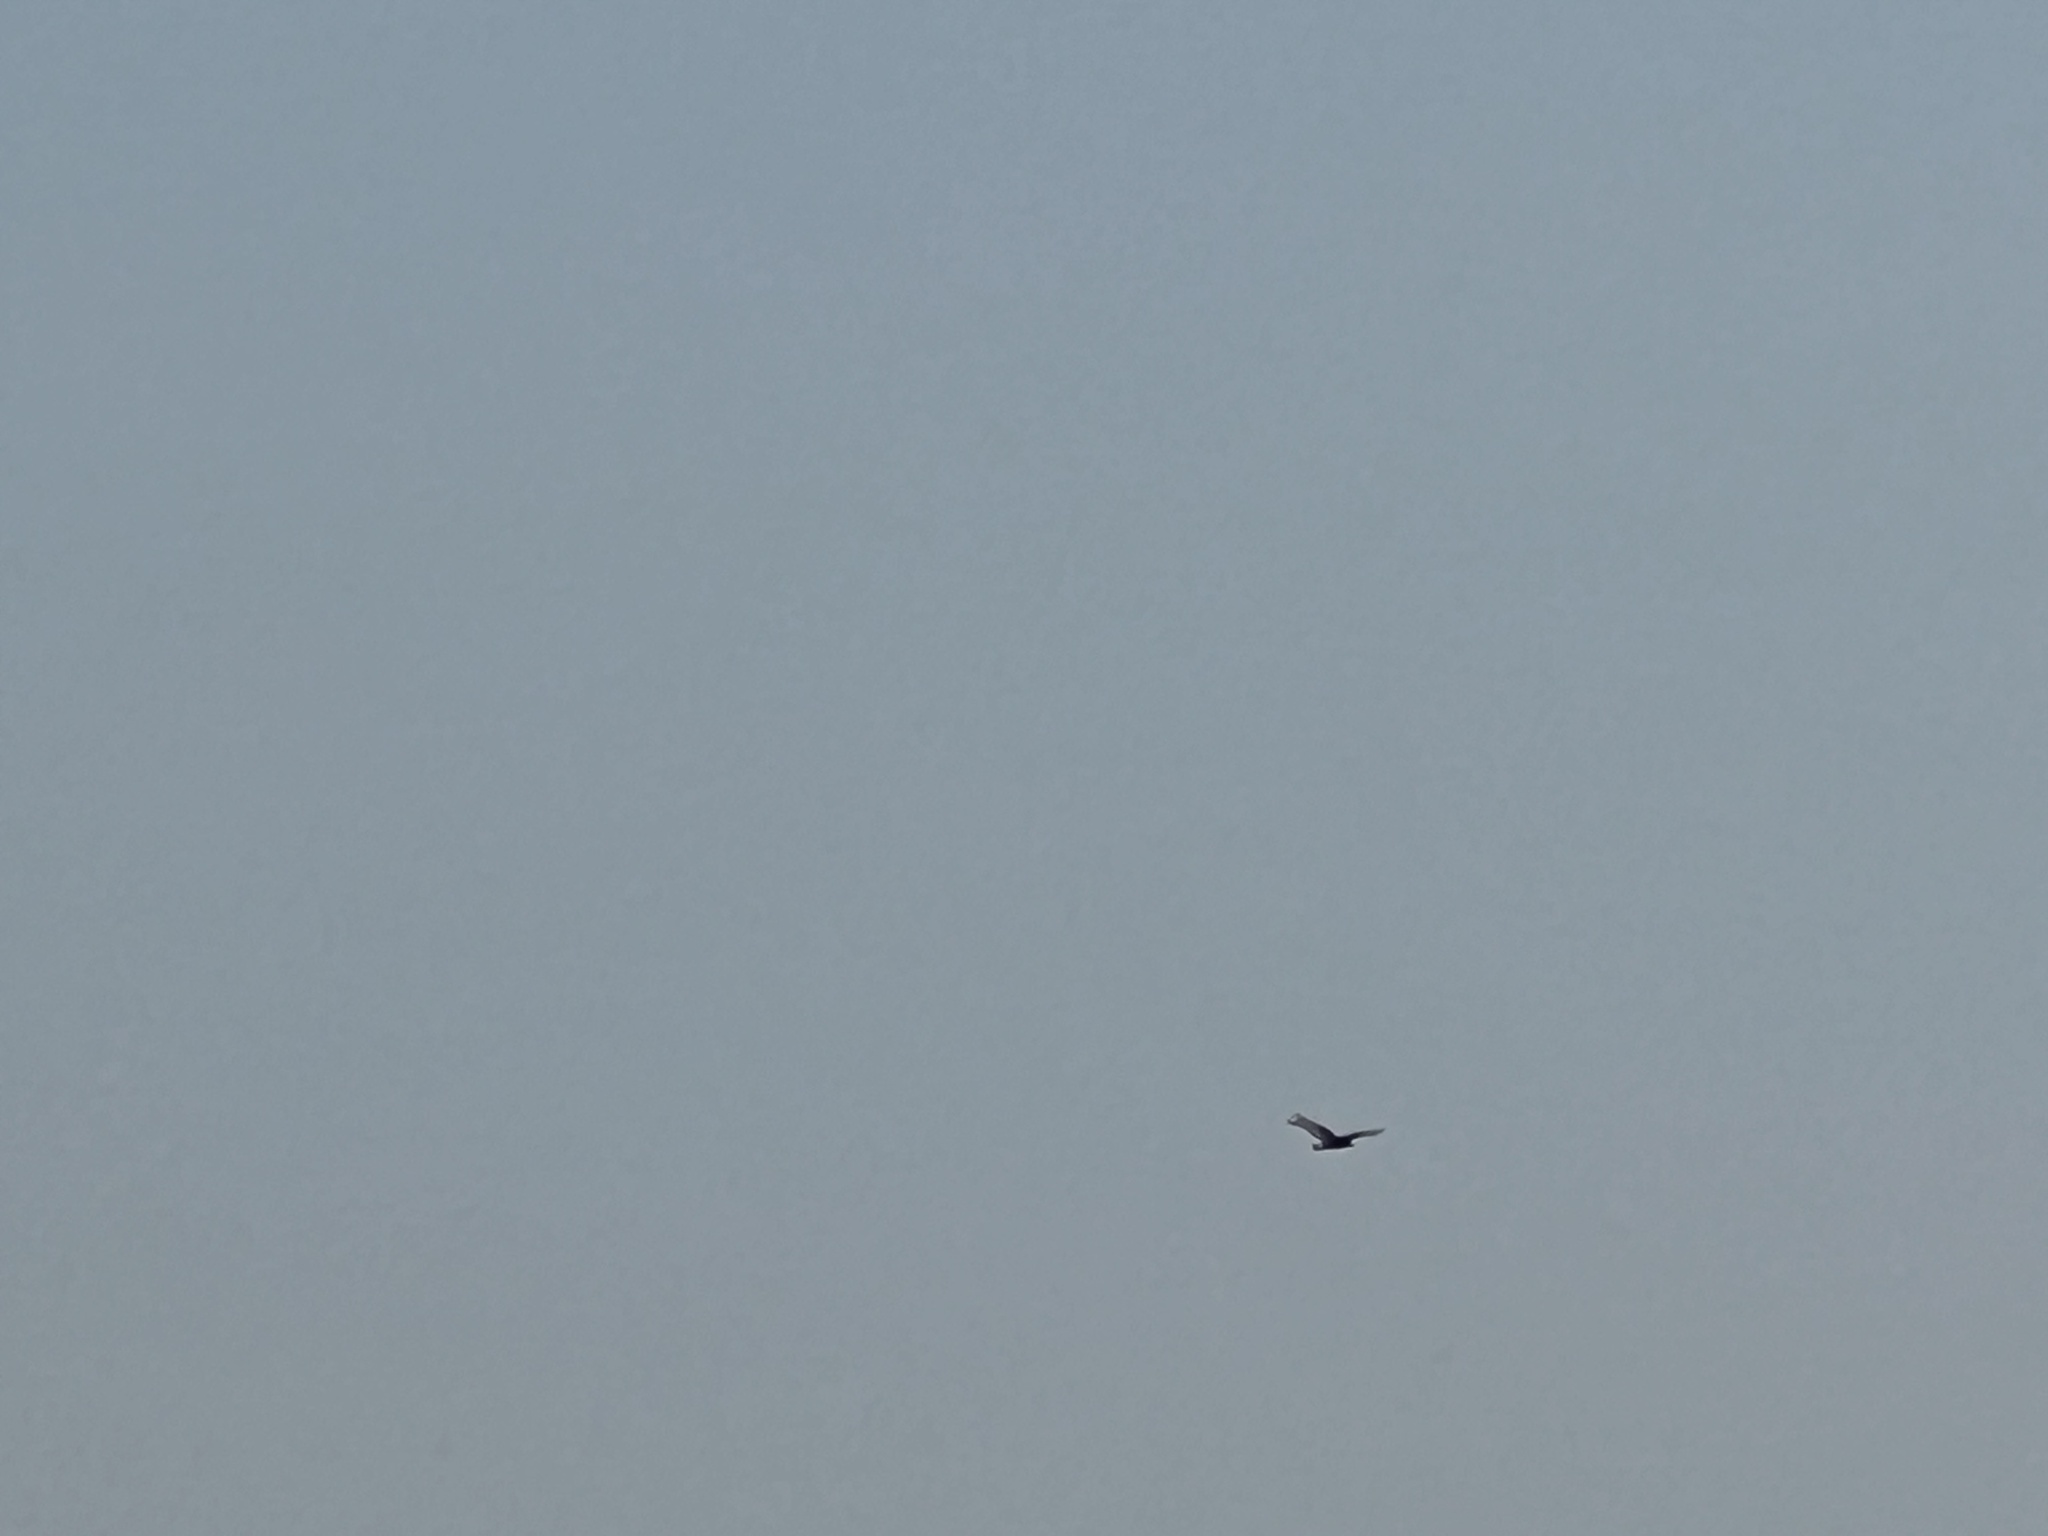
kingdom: Animalia
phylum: Chordata
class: Aves
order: Accipitriformes
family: Cathartidae
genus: Cathartes
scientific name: Cathartes aura
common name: Turkey vulture
